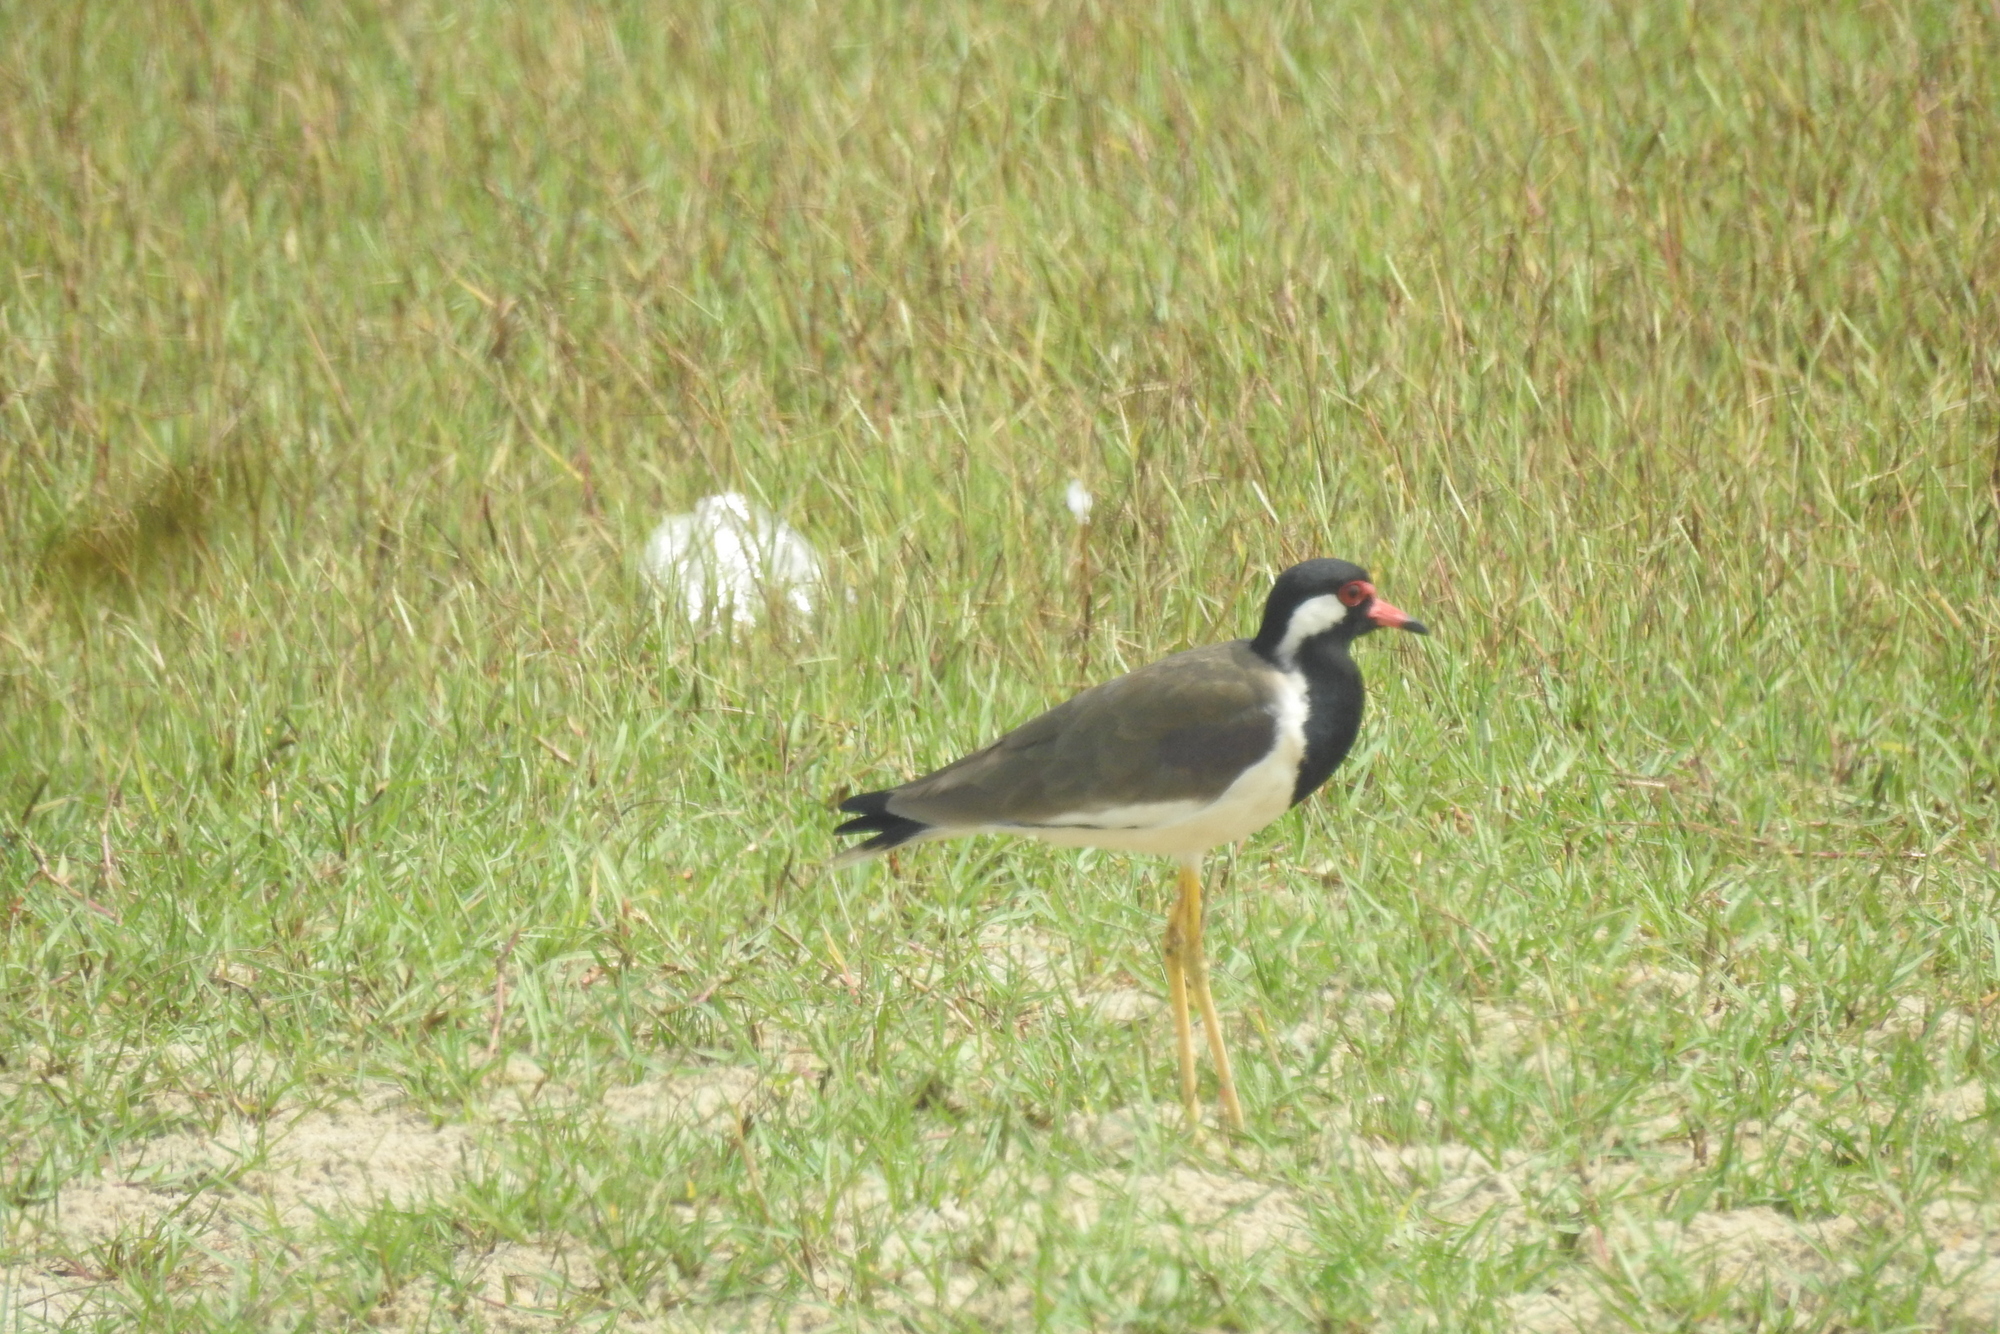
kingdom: Animalia
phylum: Chordata
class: Aves
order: Charadriiformes
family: Charadriidae
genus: Vanellus
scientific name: Vanellus indicus
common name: Red-wattled lapwing
